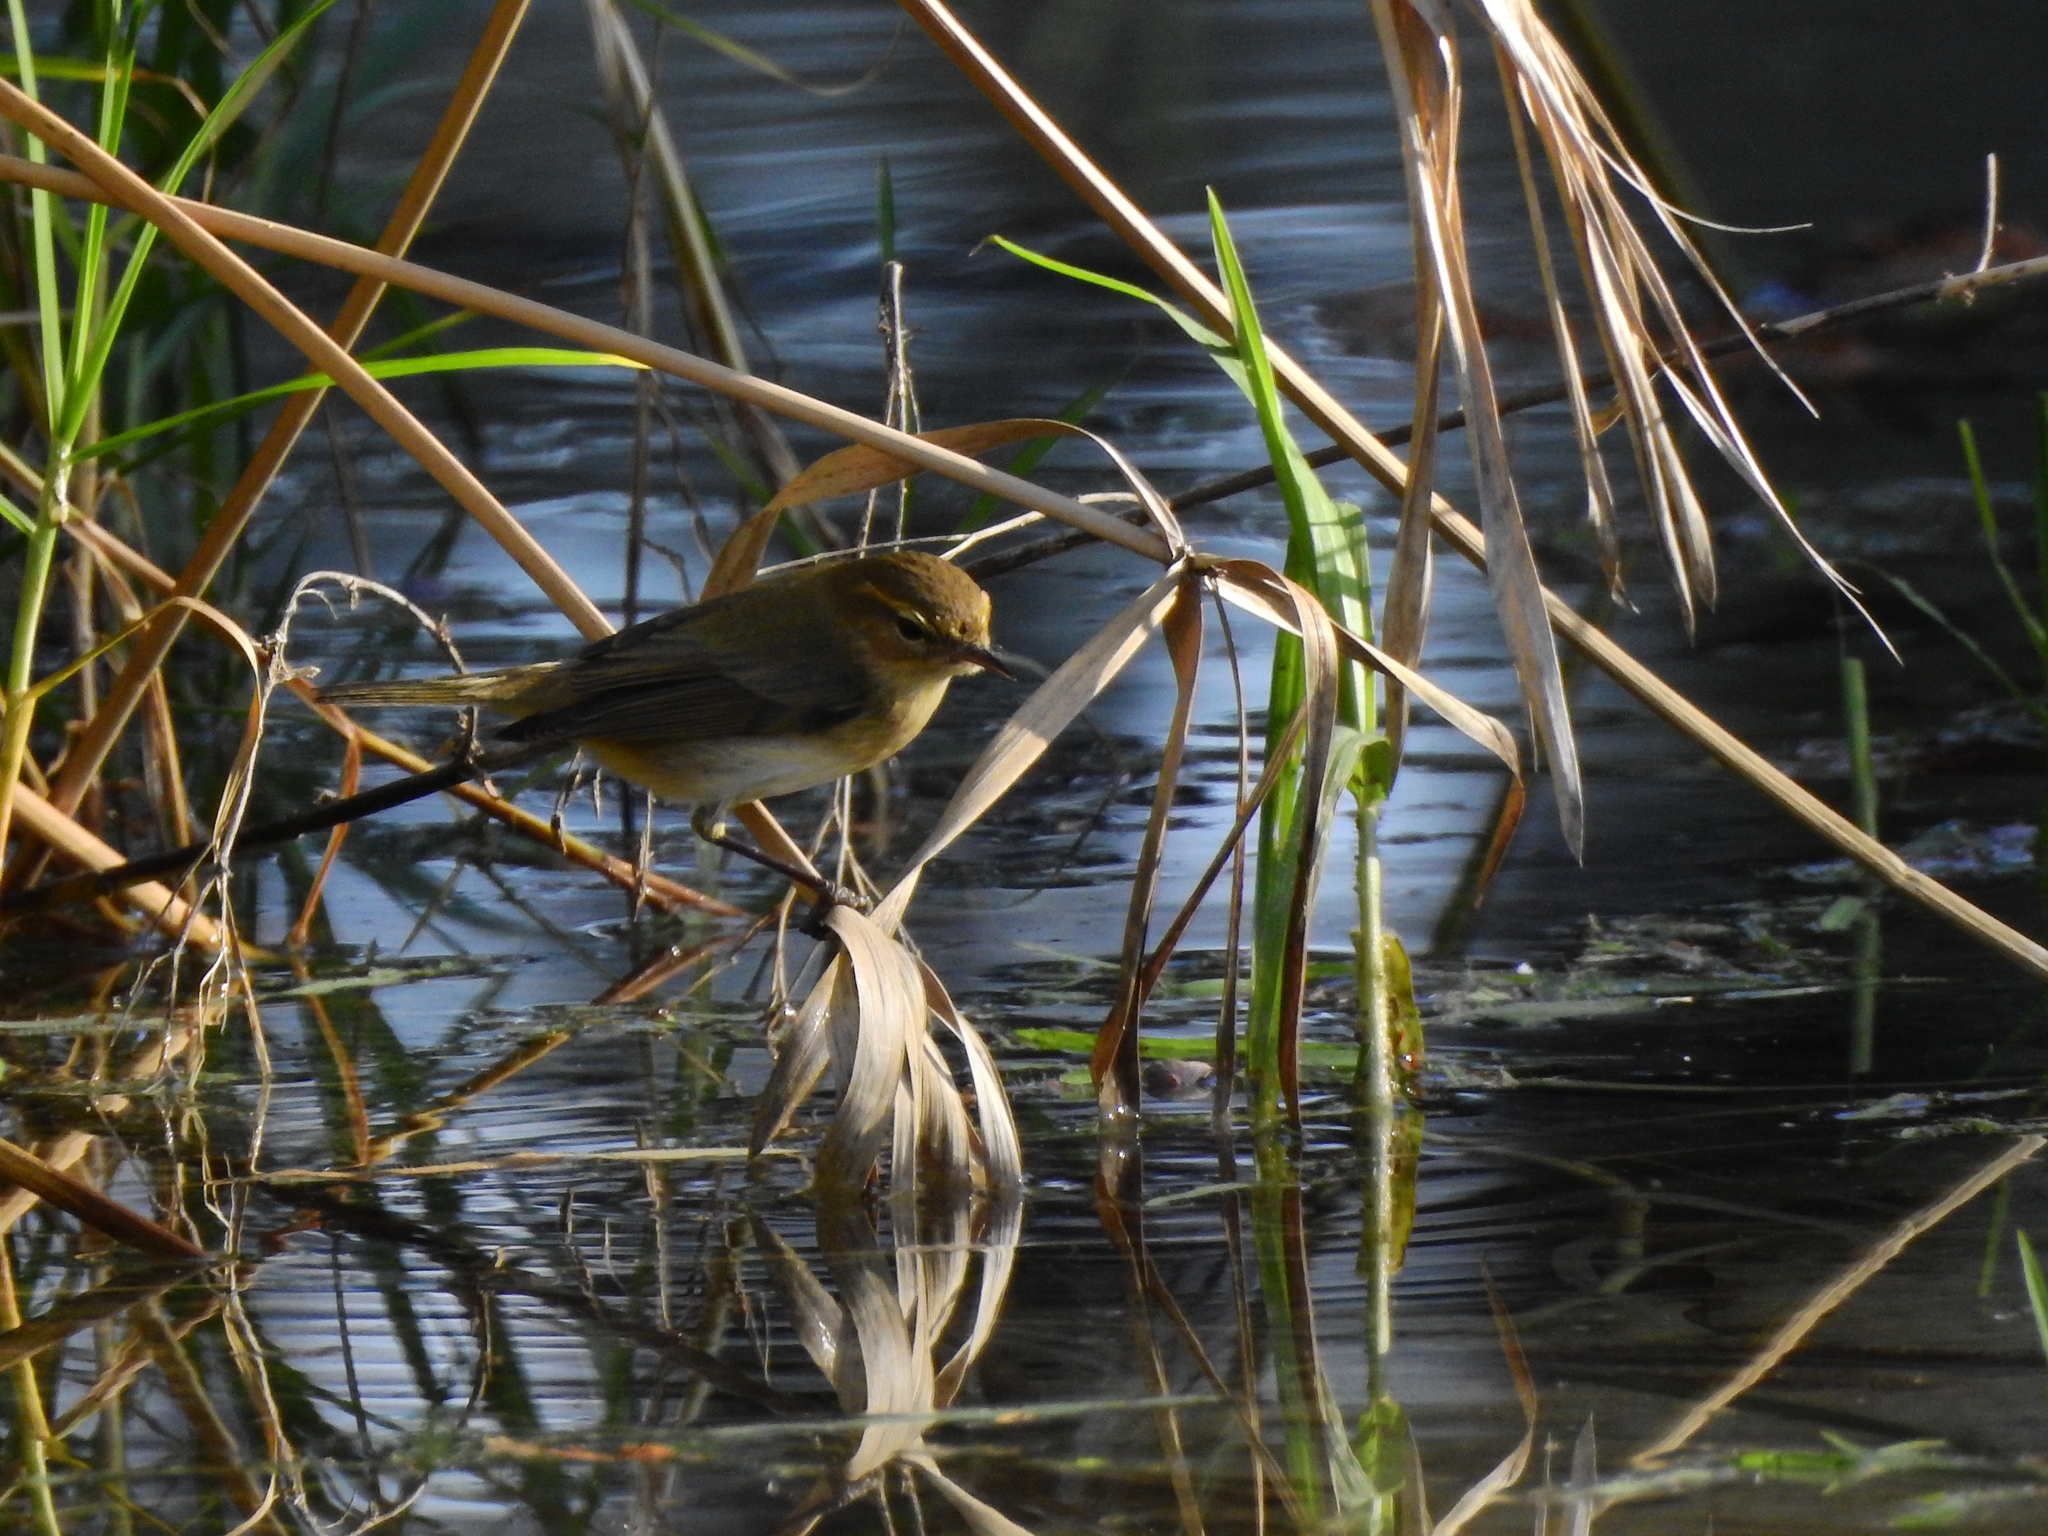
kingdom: Animalia
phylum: Chordata
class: Aves
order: Passeriformes
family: Phylloscopidae
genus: Phylloscopus
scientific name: Phylloscopus collybita
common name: Common chiffchaff
